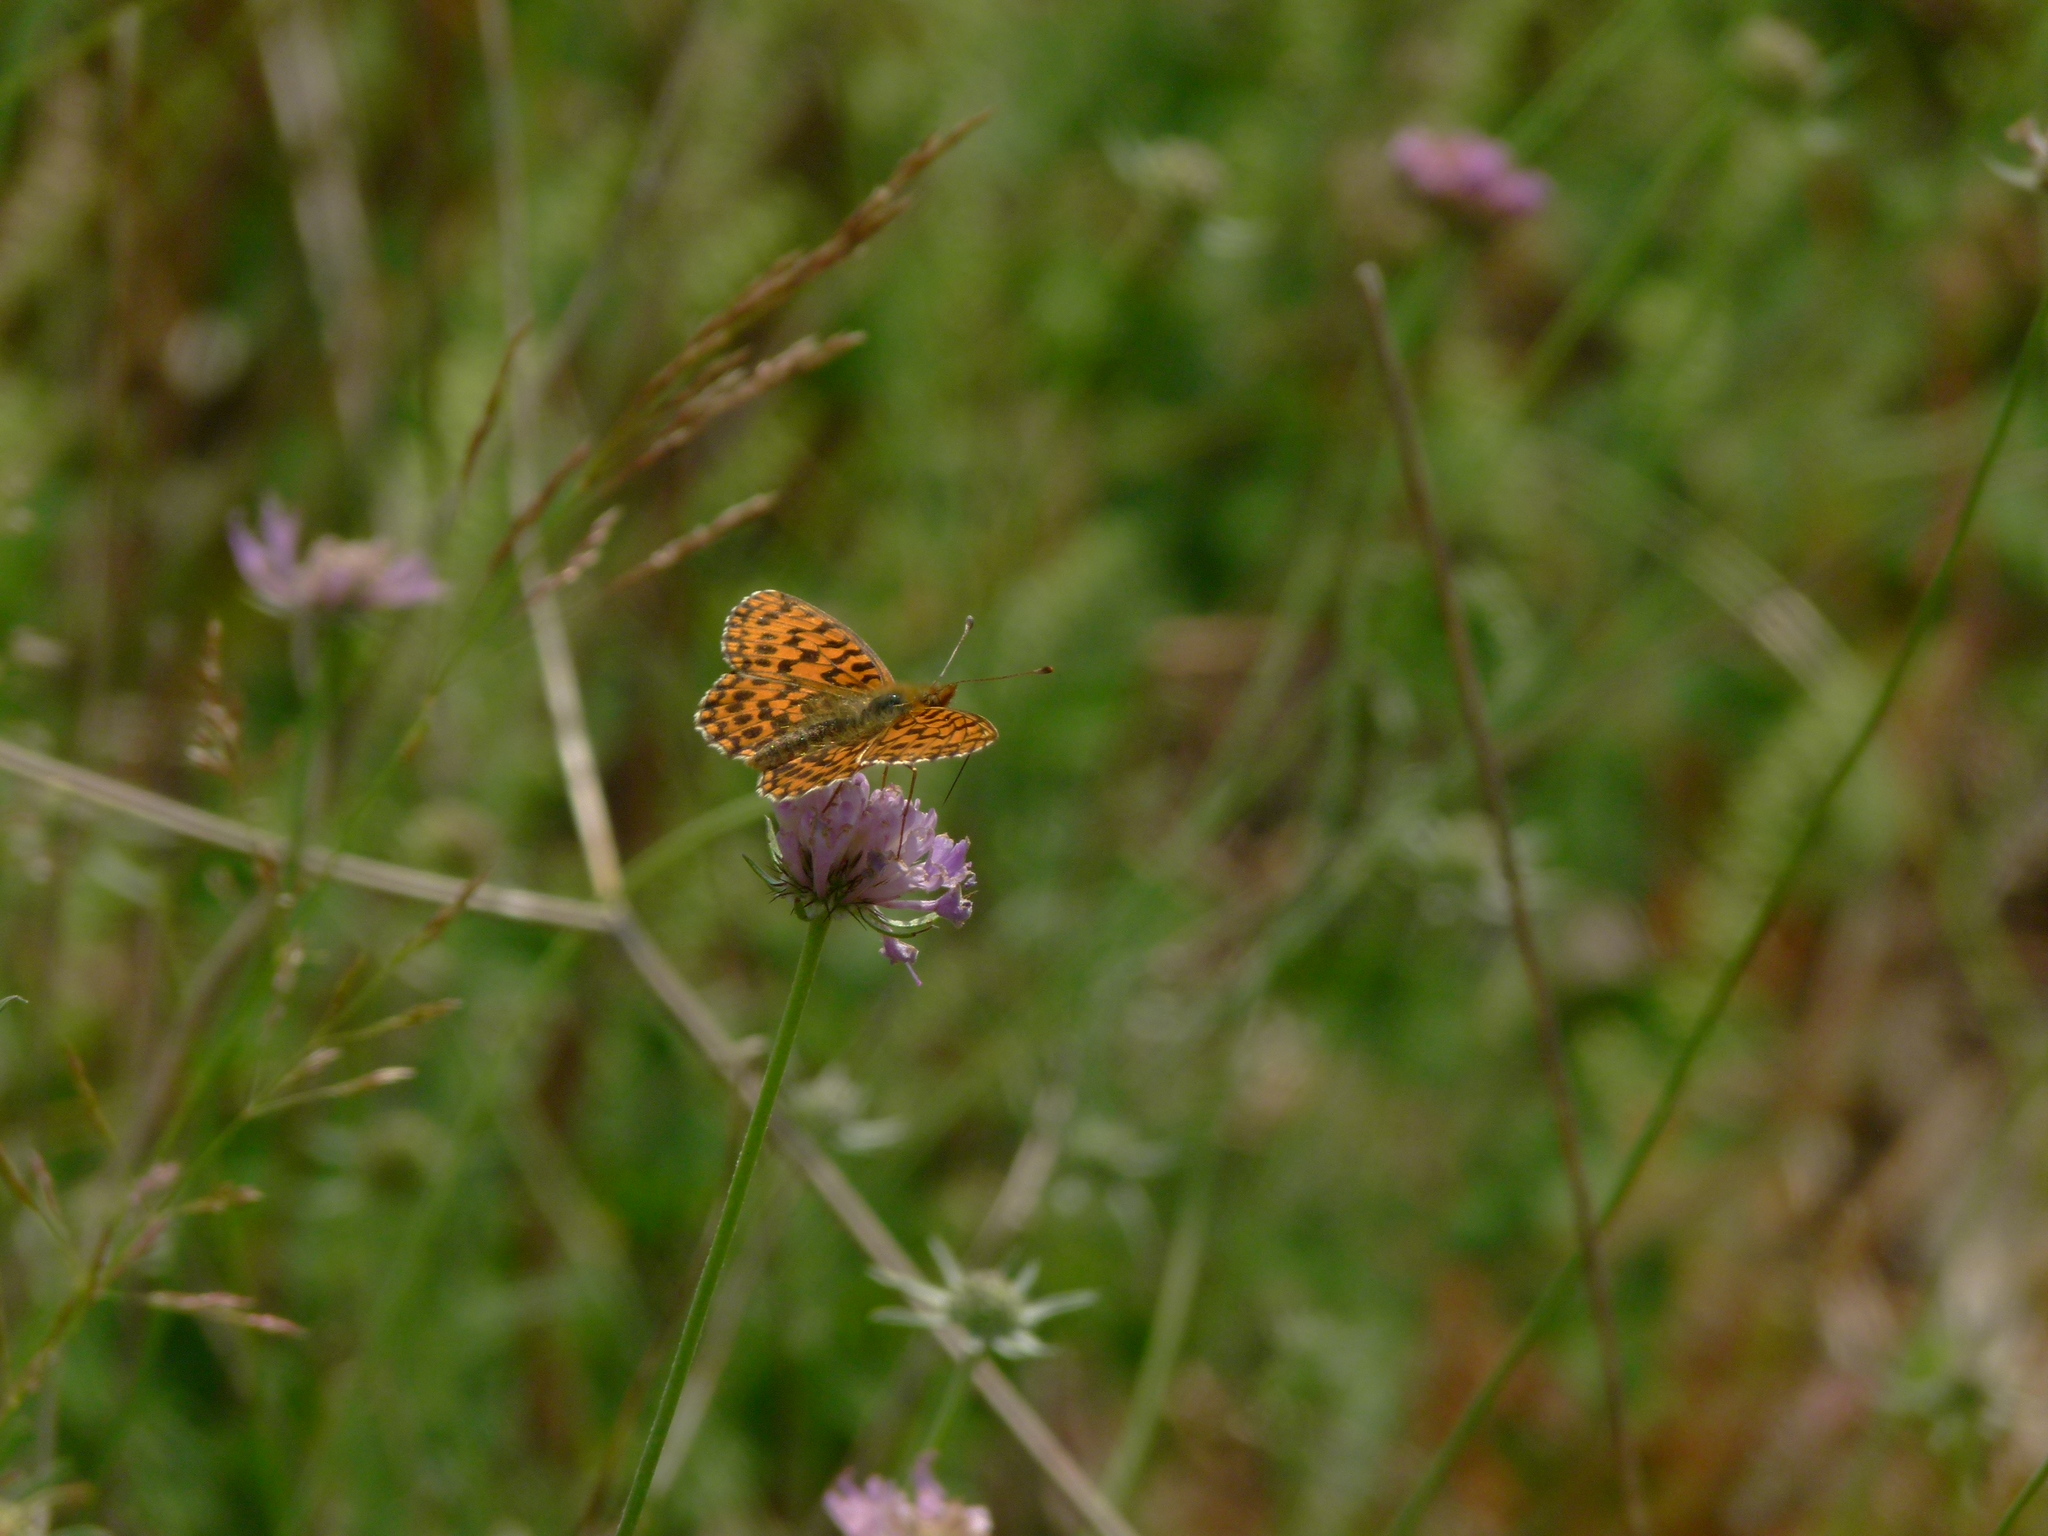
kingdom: Animalia
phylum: Arthropoda
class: Insecta
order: Lepidoptera
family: Nymphalidae
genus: Boloria
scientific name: Boloria dia
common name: Weaver's fritillary
